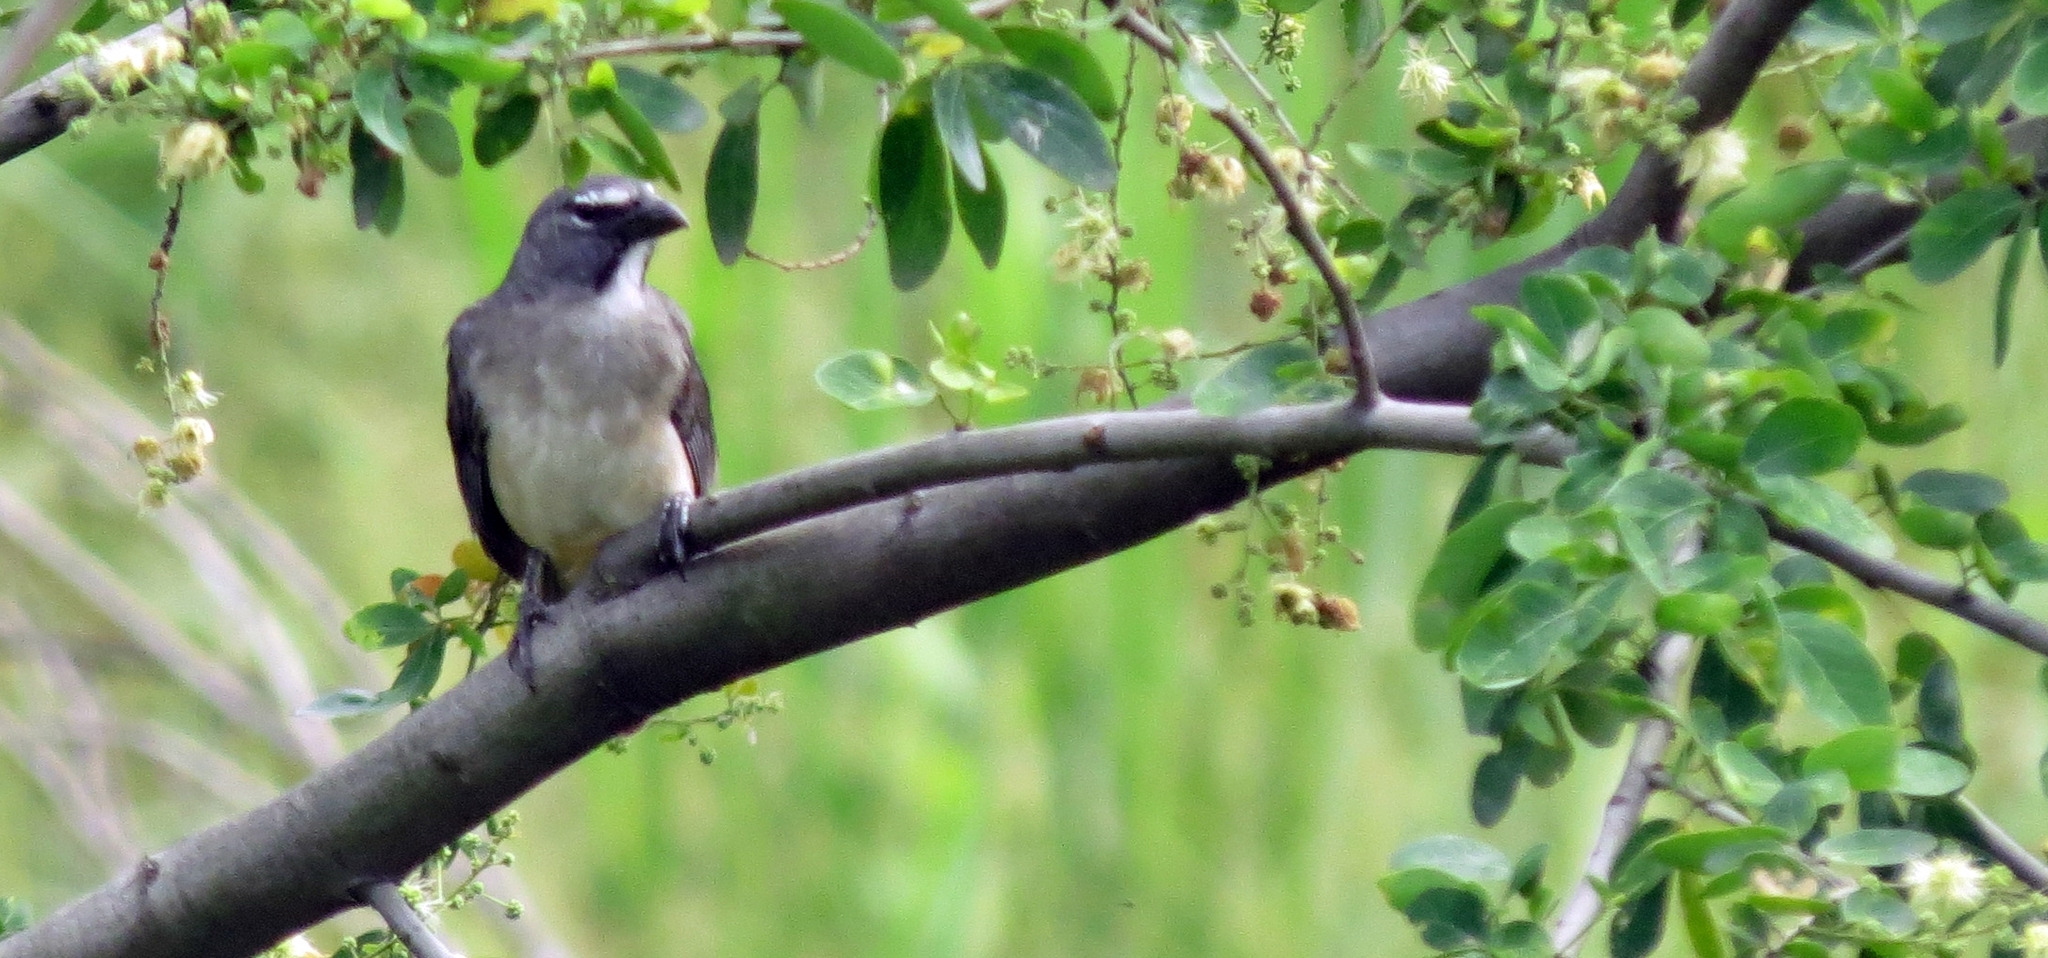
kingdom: Animalia
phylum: Chordata
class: Aves
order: Passeriformes
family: Thraupidae
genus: Saltator
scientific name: Saltator olivascens
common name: Caribbean grey saltator
